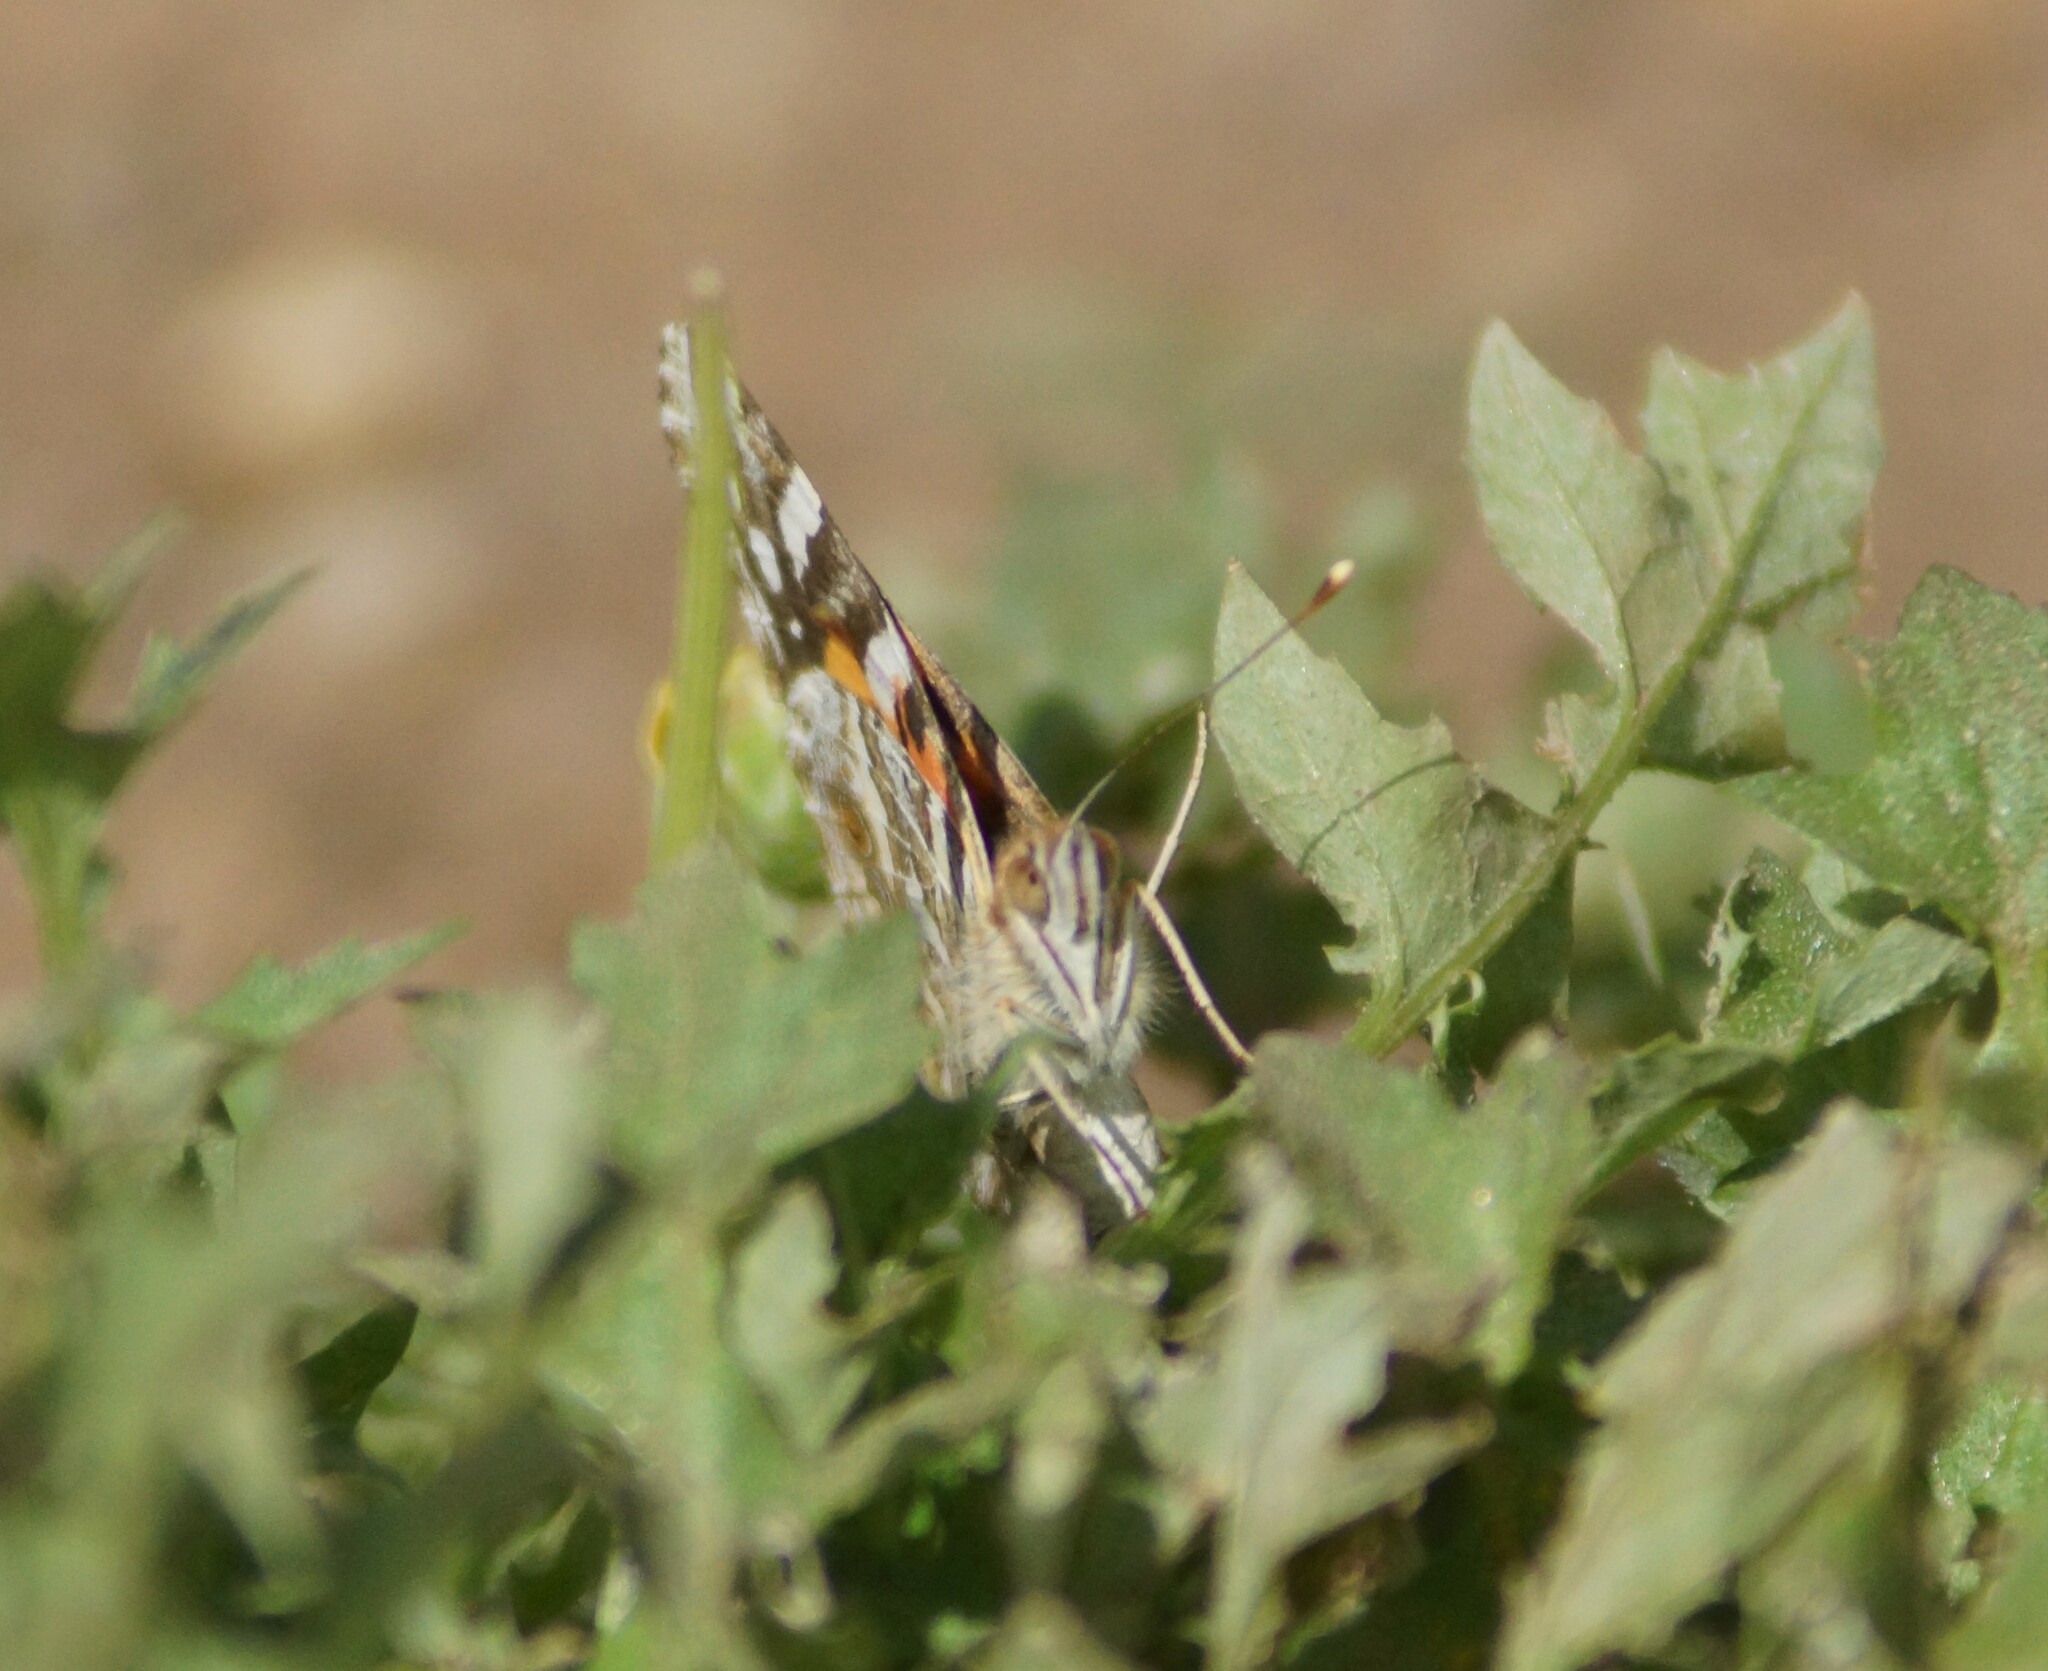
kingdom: Animalia
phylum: Arthropoda
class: Insecta
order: Lepidoptera
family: Nymphalidae
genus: Vanessa
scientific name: Vanessa kershawi
